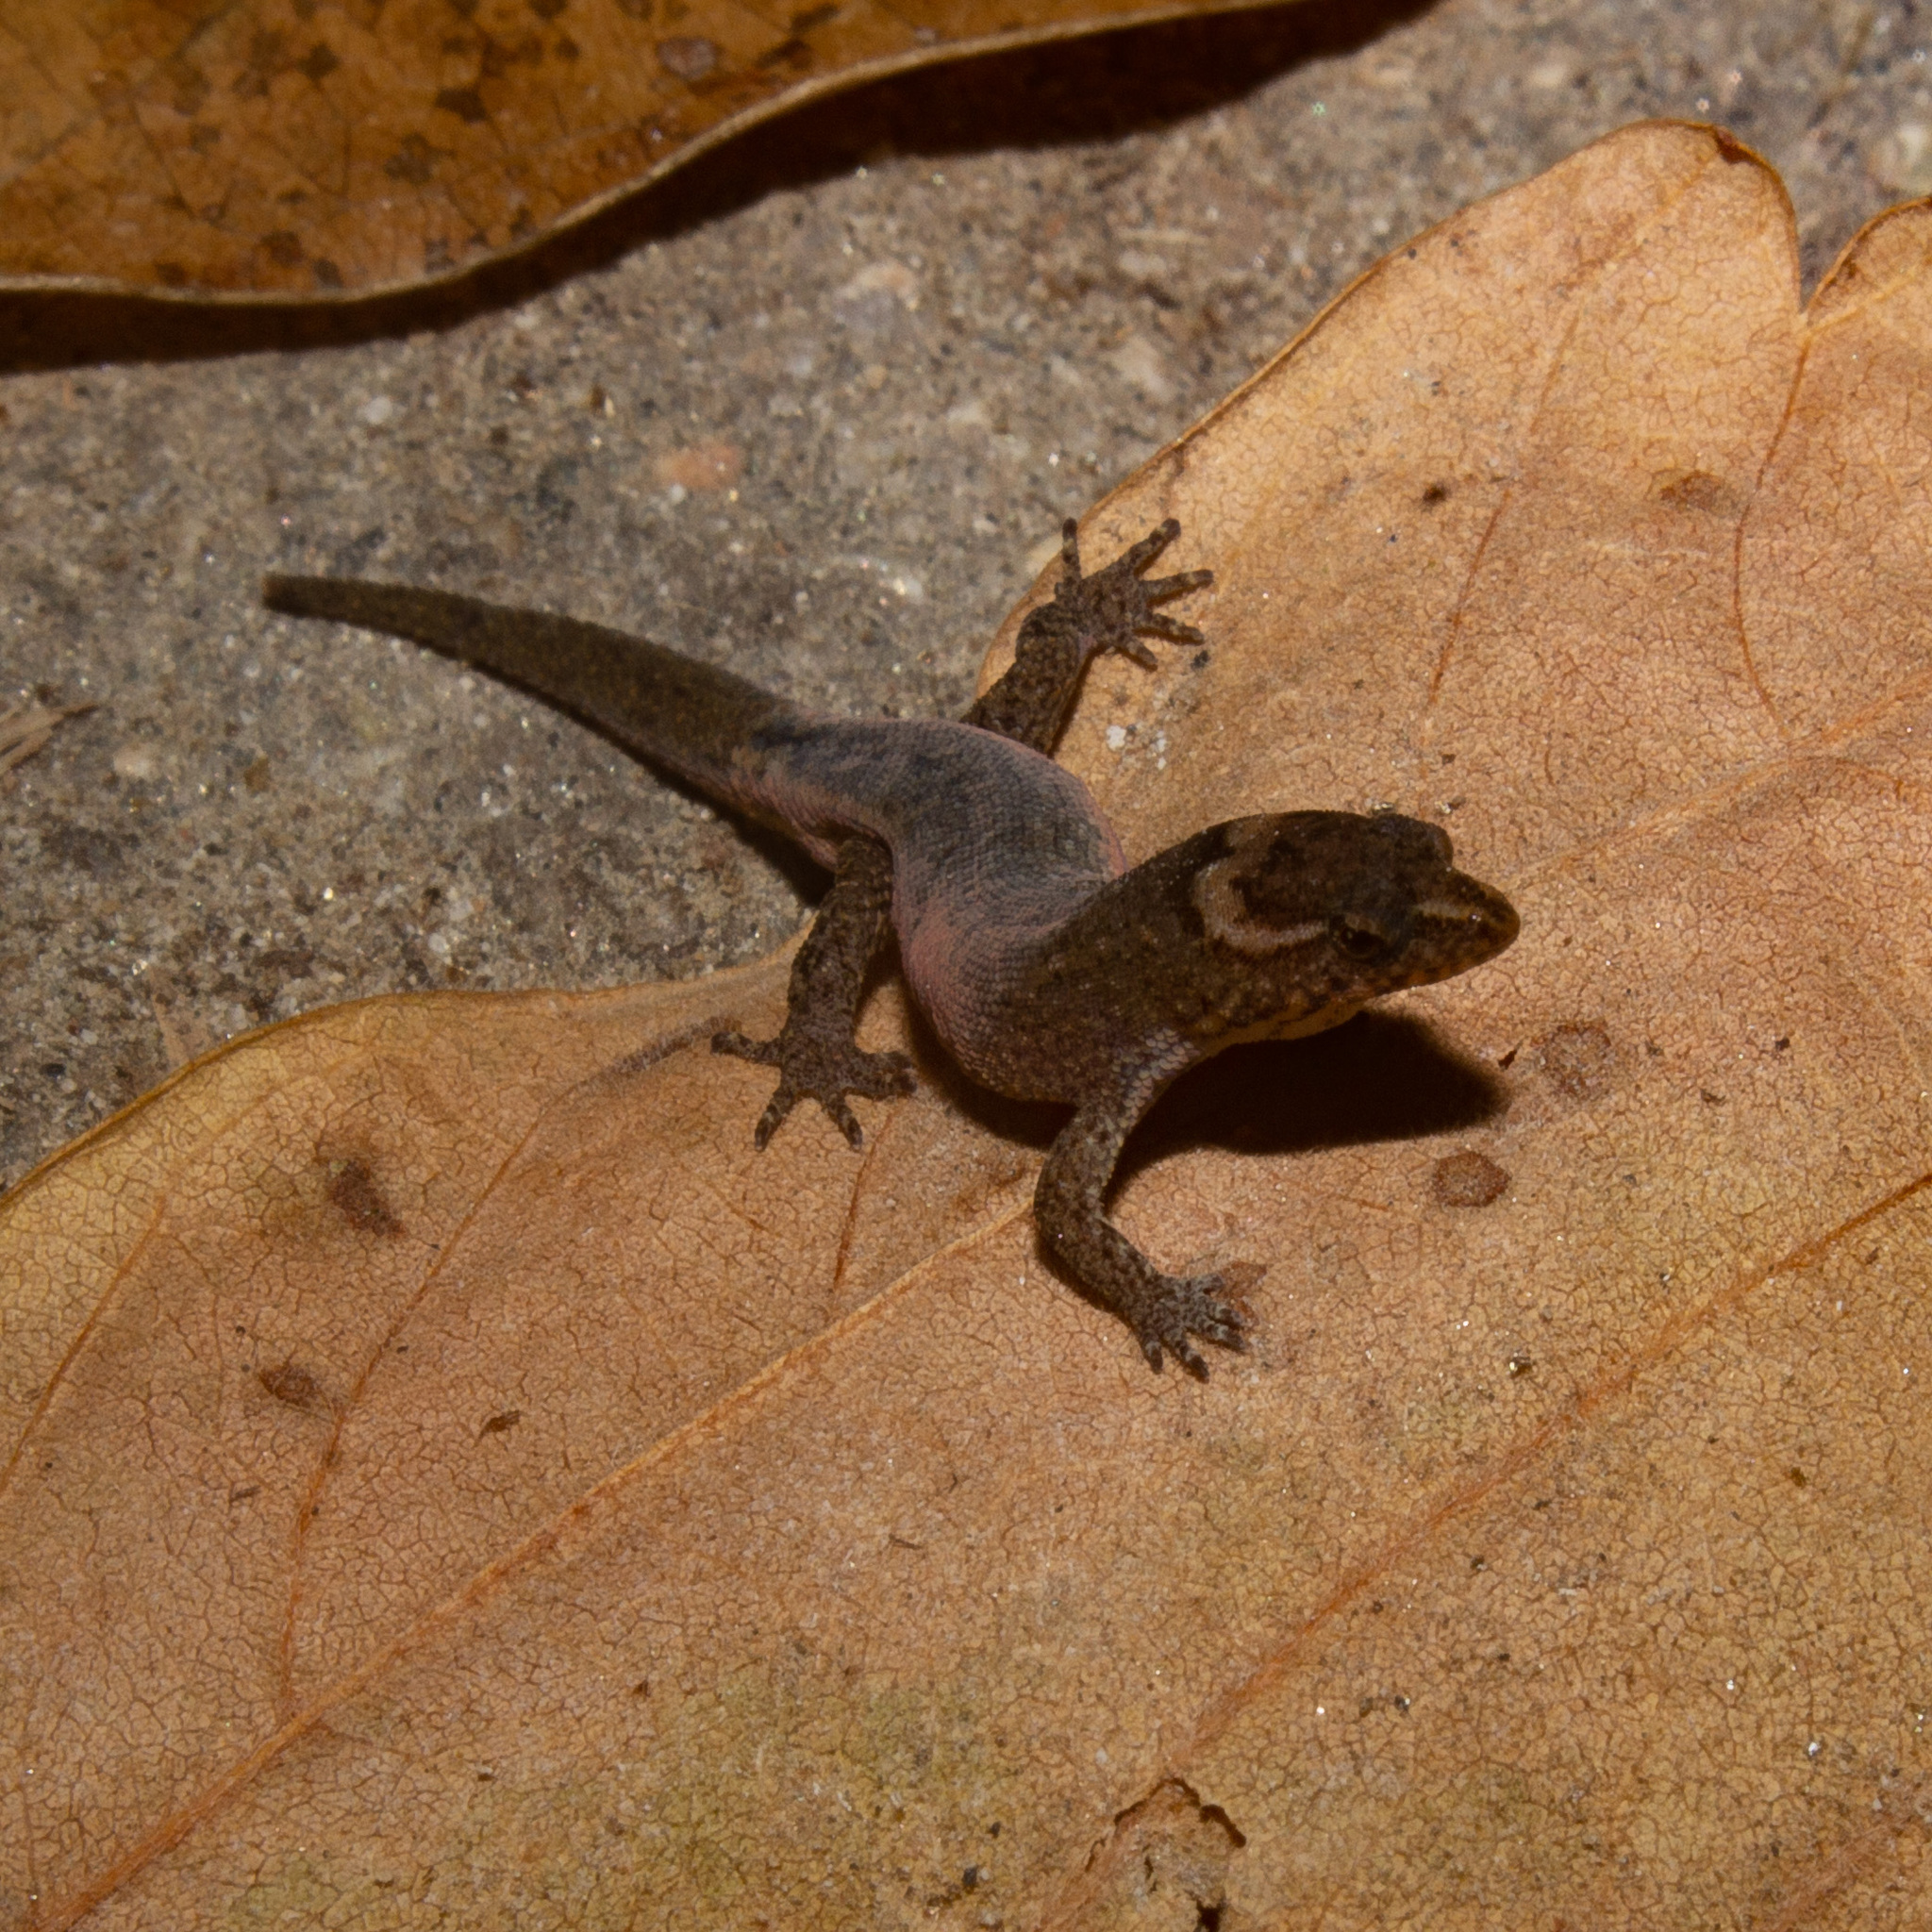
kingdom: Animalia
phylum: Chordata
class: Squamata
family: Sphaerodactylidae
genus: Lepidoblepharis
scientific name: Lepidoblepharis sanctaemartae
